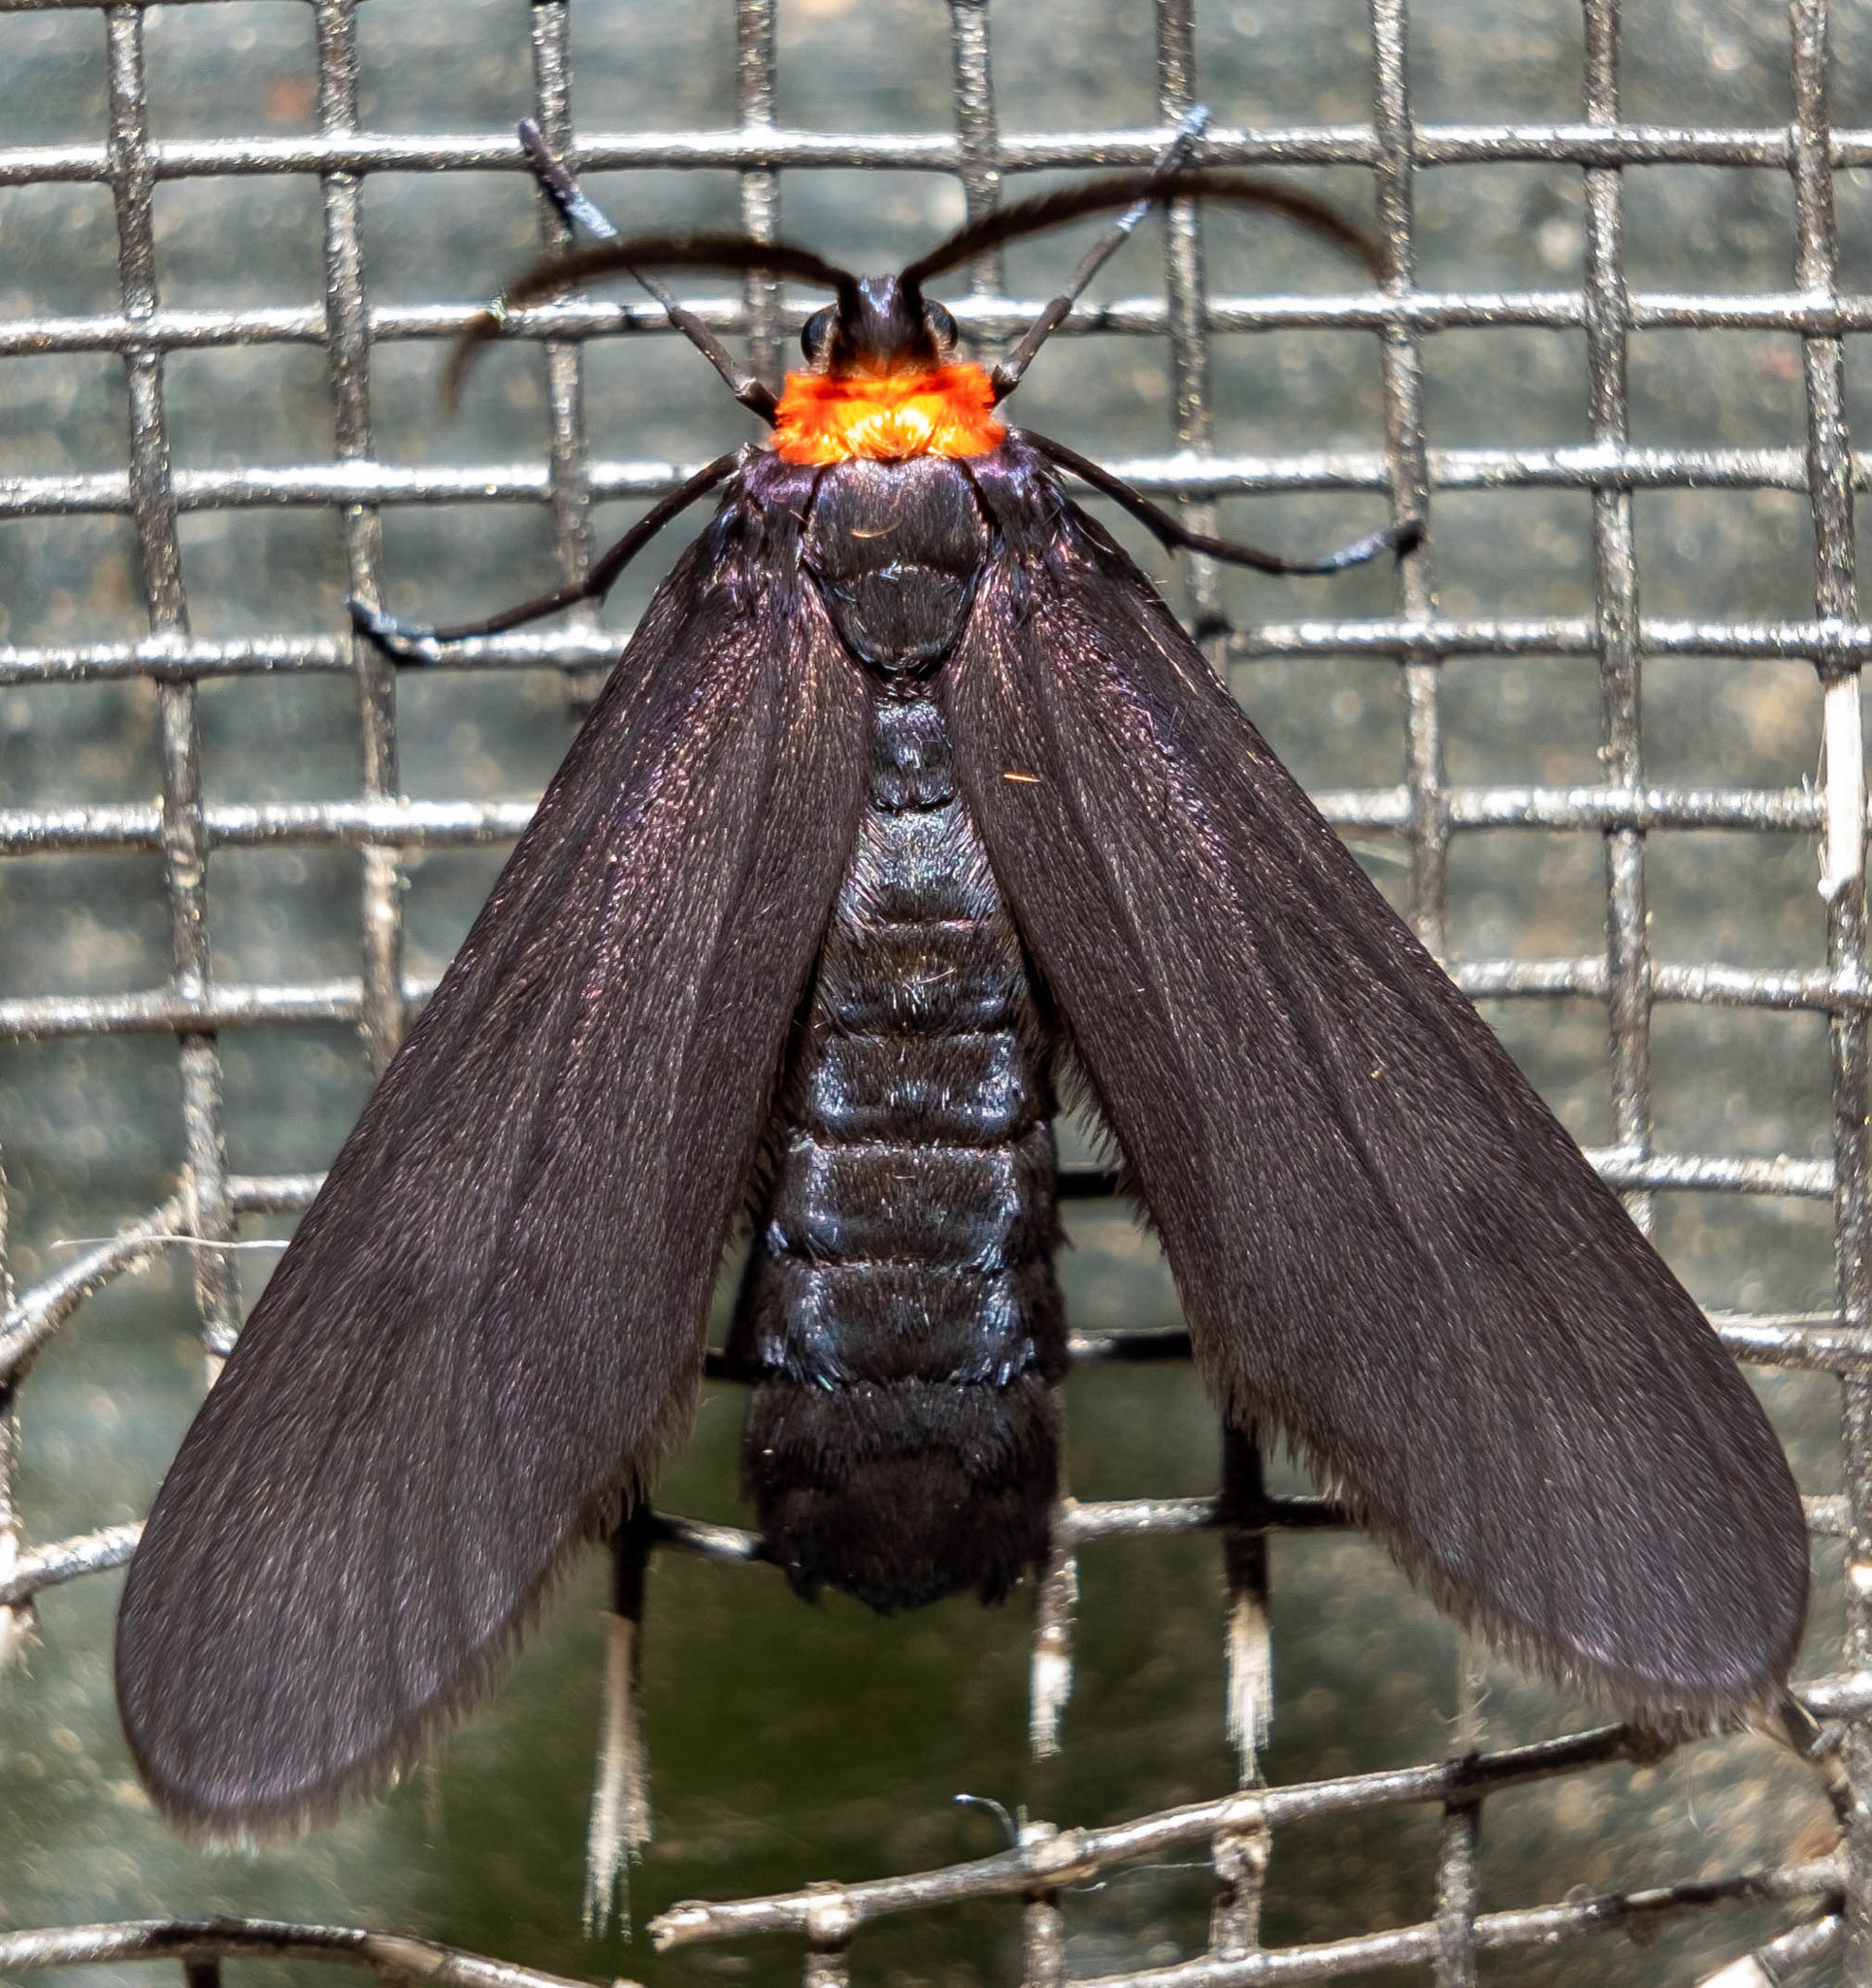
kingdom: Animalia
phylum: Arthropoda
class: Insecta
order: Lepidoptera
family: Zygaenidae
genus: Harrisina
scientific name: Harrisina americana
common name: Grapeleaf skeletonizer moth
